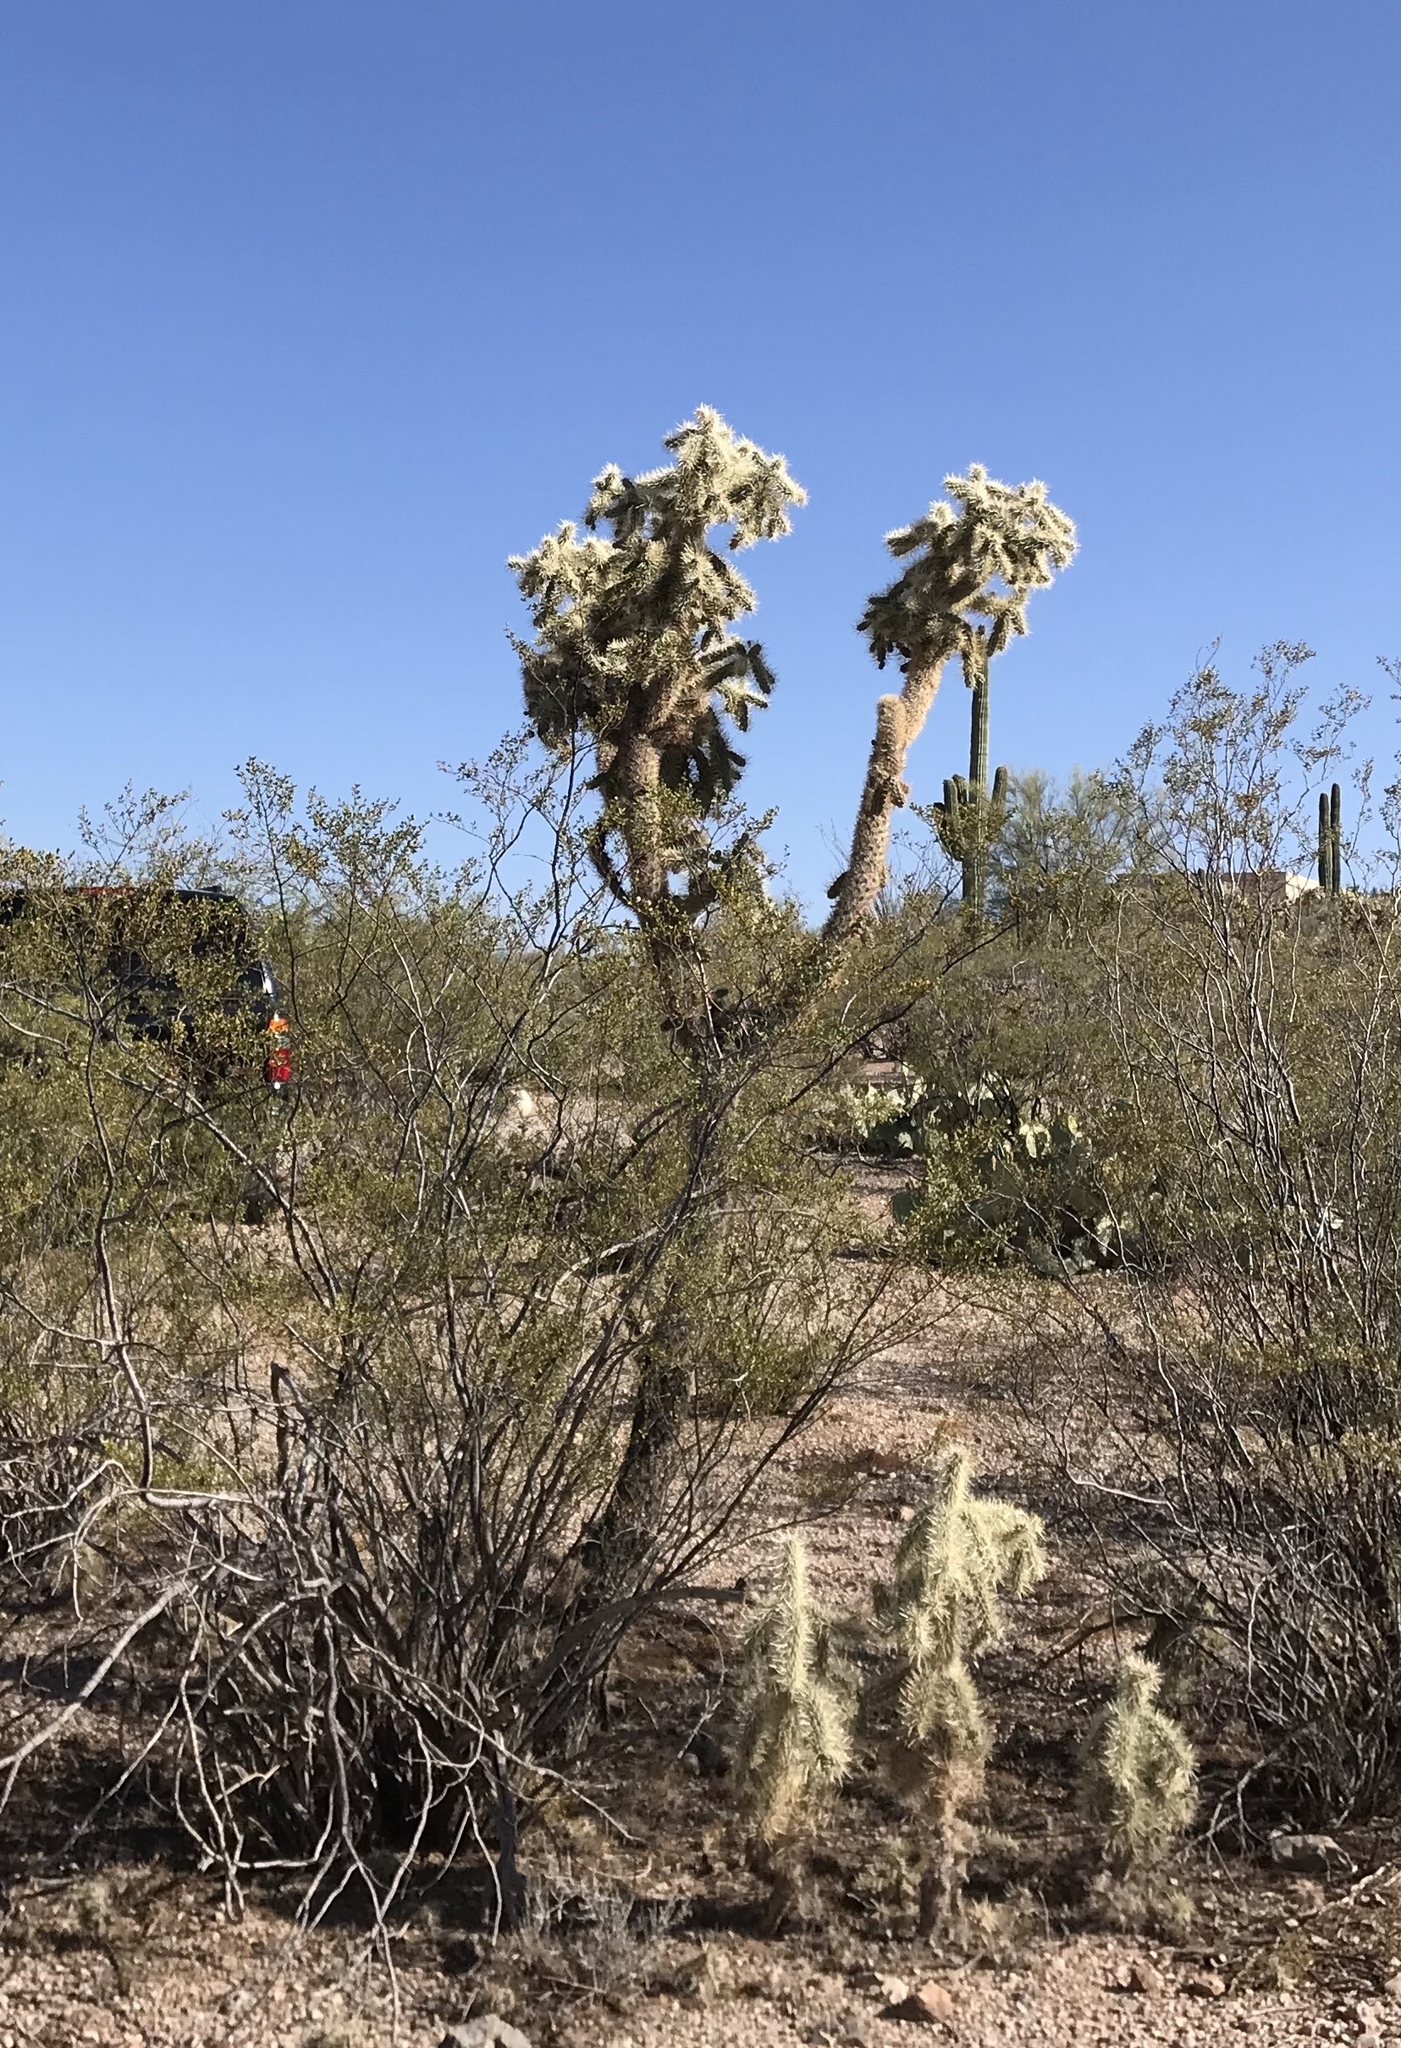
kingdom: Plantae
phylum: Tracheophyta
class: Magnoliopsida
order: Caryophyllales
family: Cactaceae
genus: Cylindropuntia
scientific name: Cylindropuntia fulgida
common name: Jumping cholla
